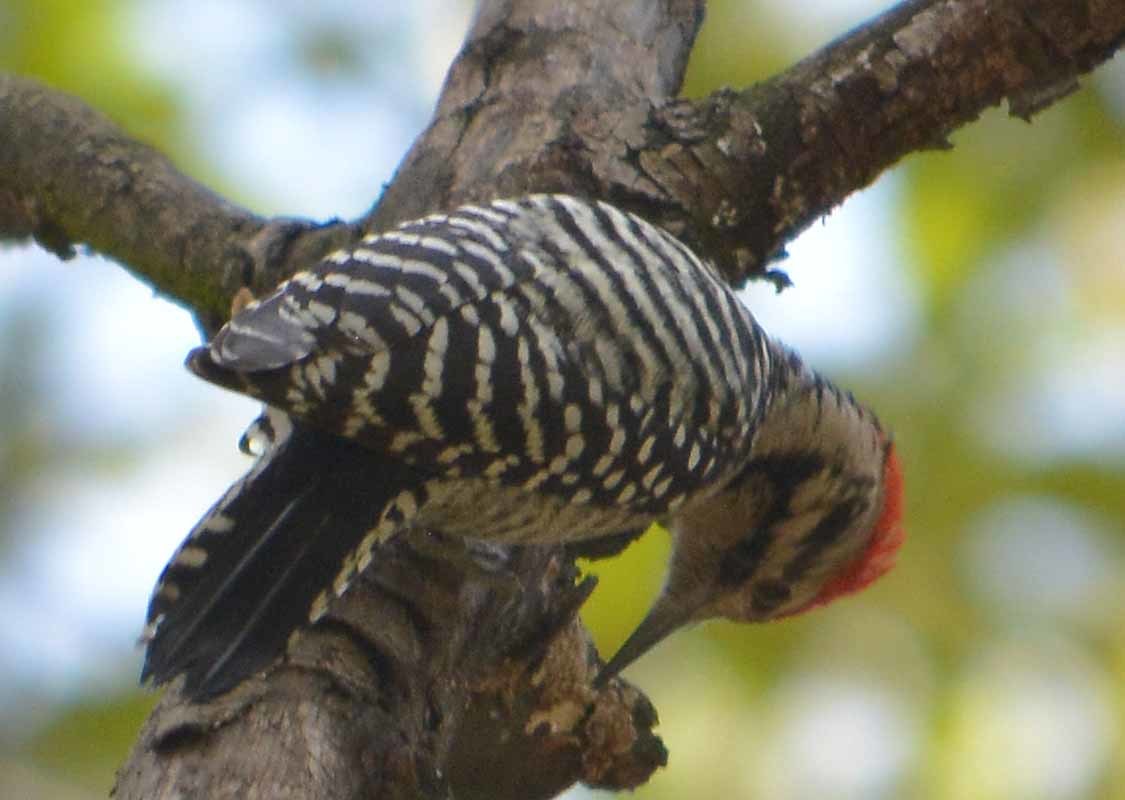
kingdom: Animalia
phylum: Chordata
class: Aves
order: Piciformes
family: Picidae
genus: Dryobates
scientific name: Dryobates scalaris
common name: Ladder-backed woodpecker
